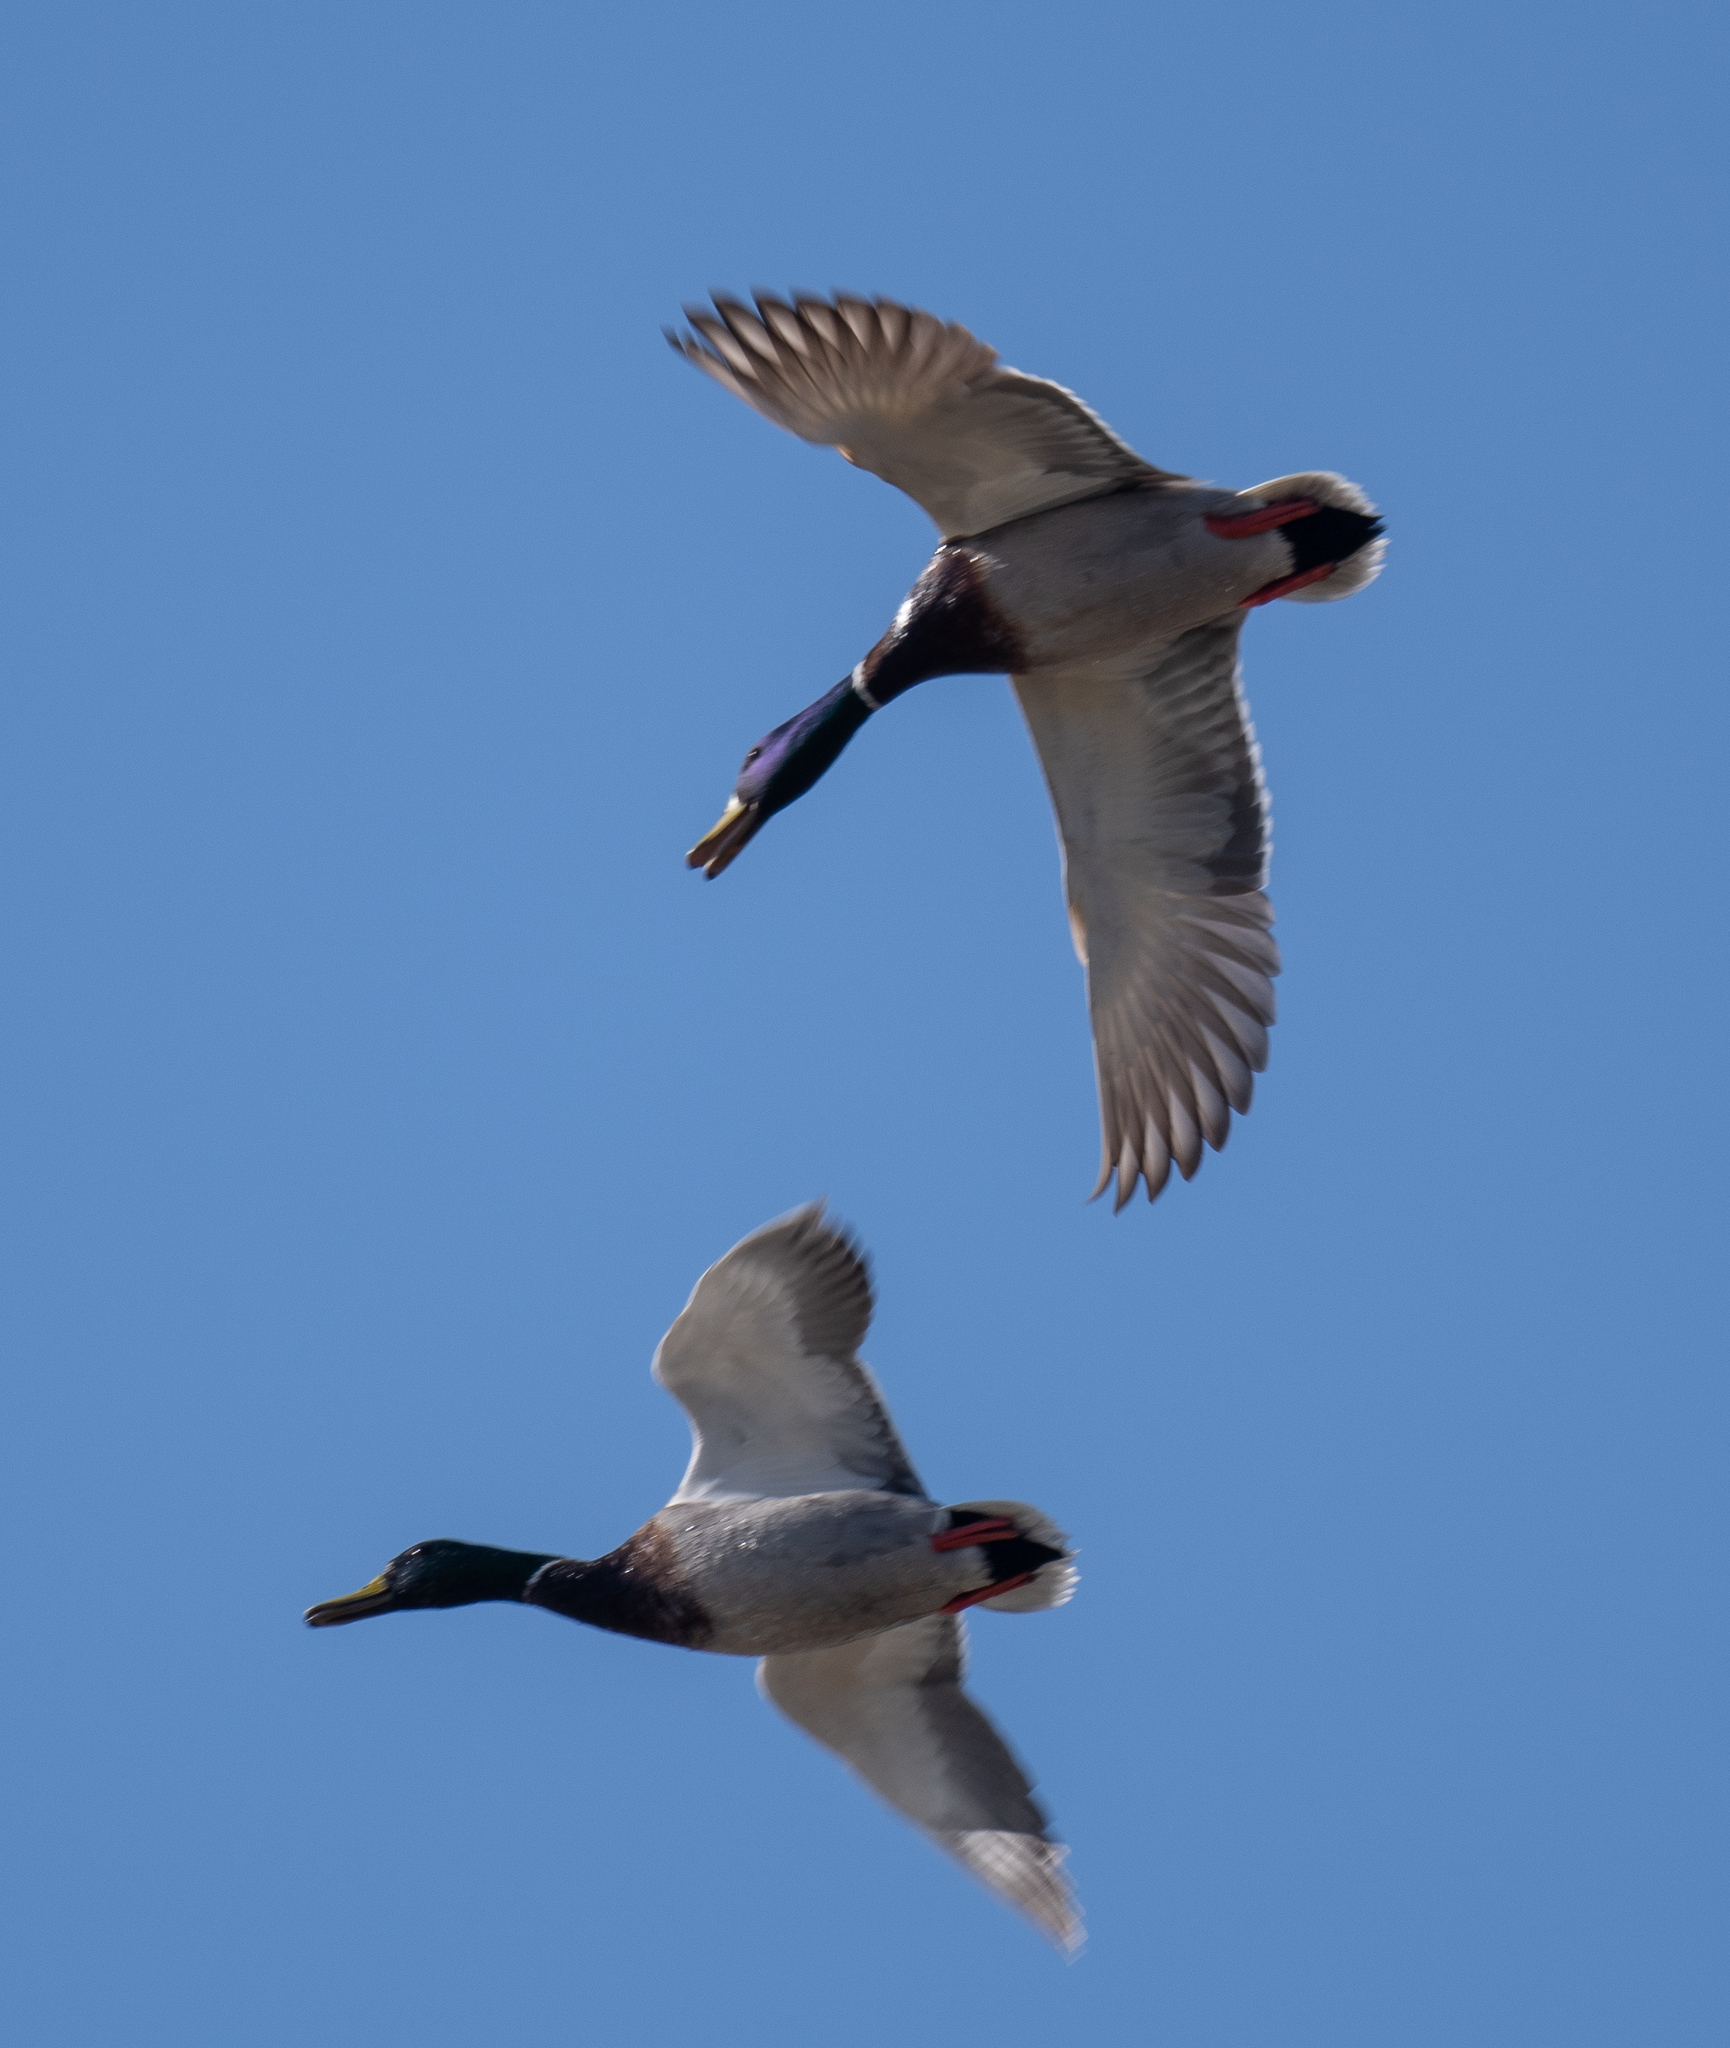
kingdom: Animalia
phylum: Chordata
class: Aves
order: Anseriformes
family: Anatidae
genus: Anas
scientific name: Anas platyrhynchos
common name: Mallard
